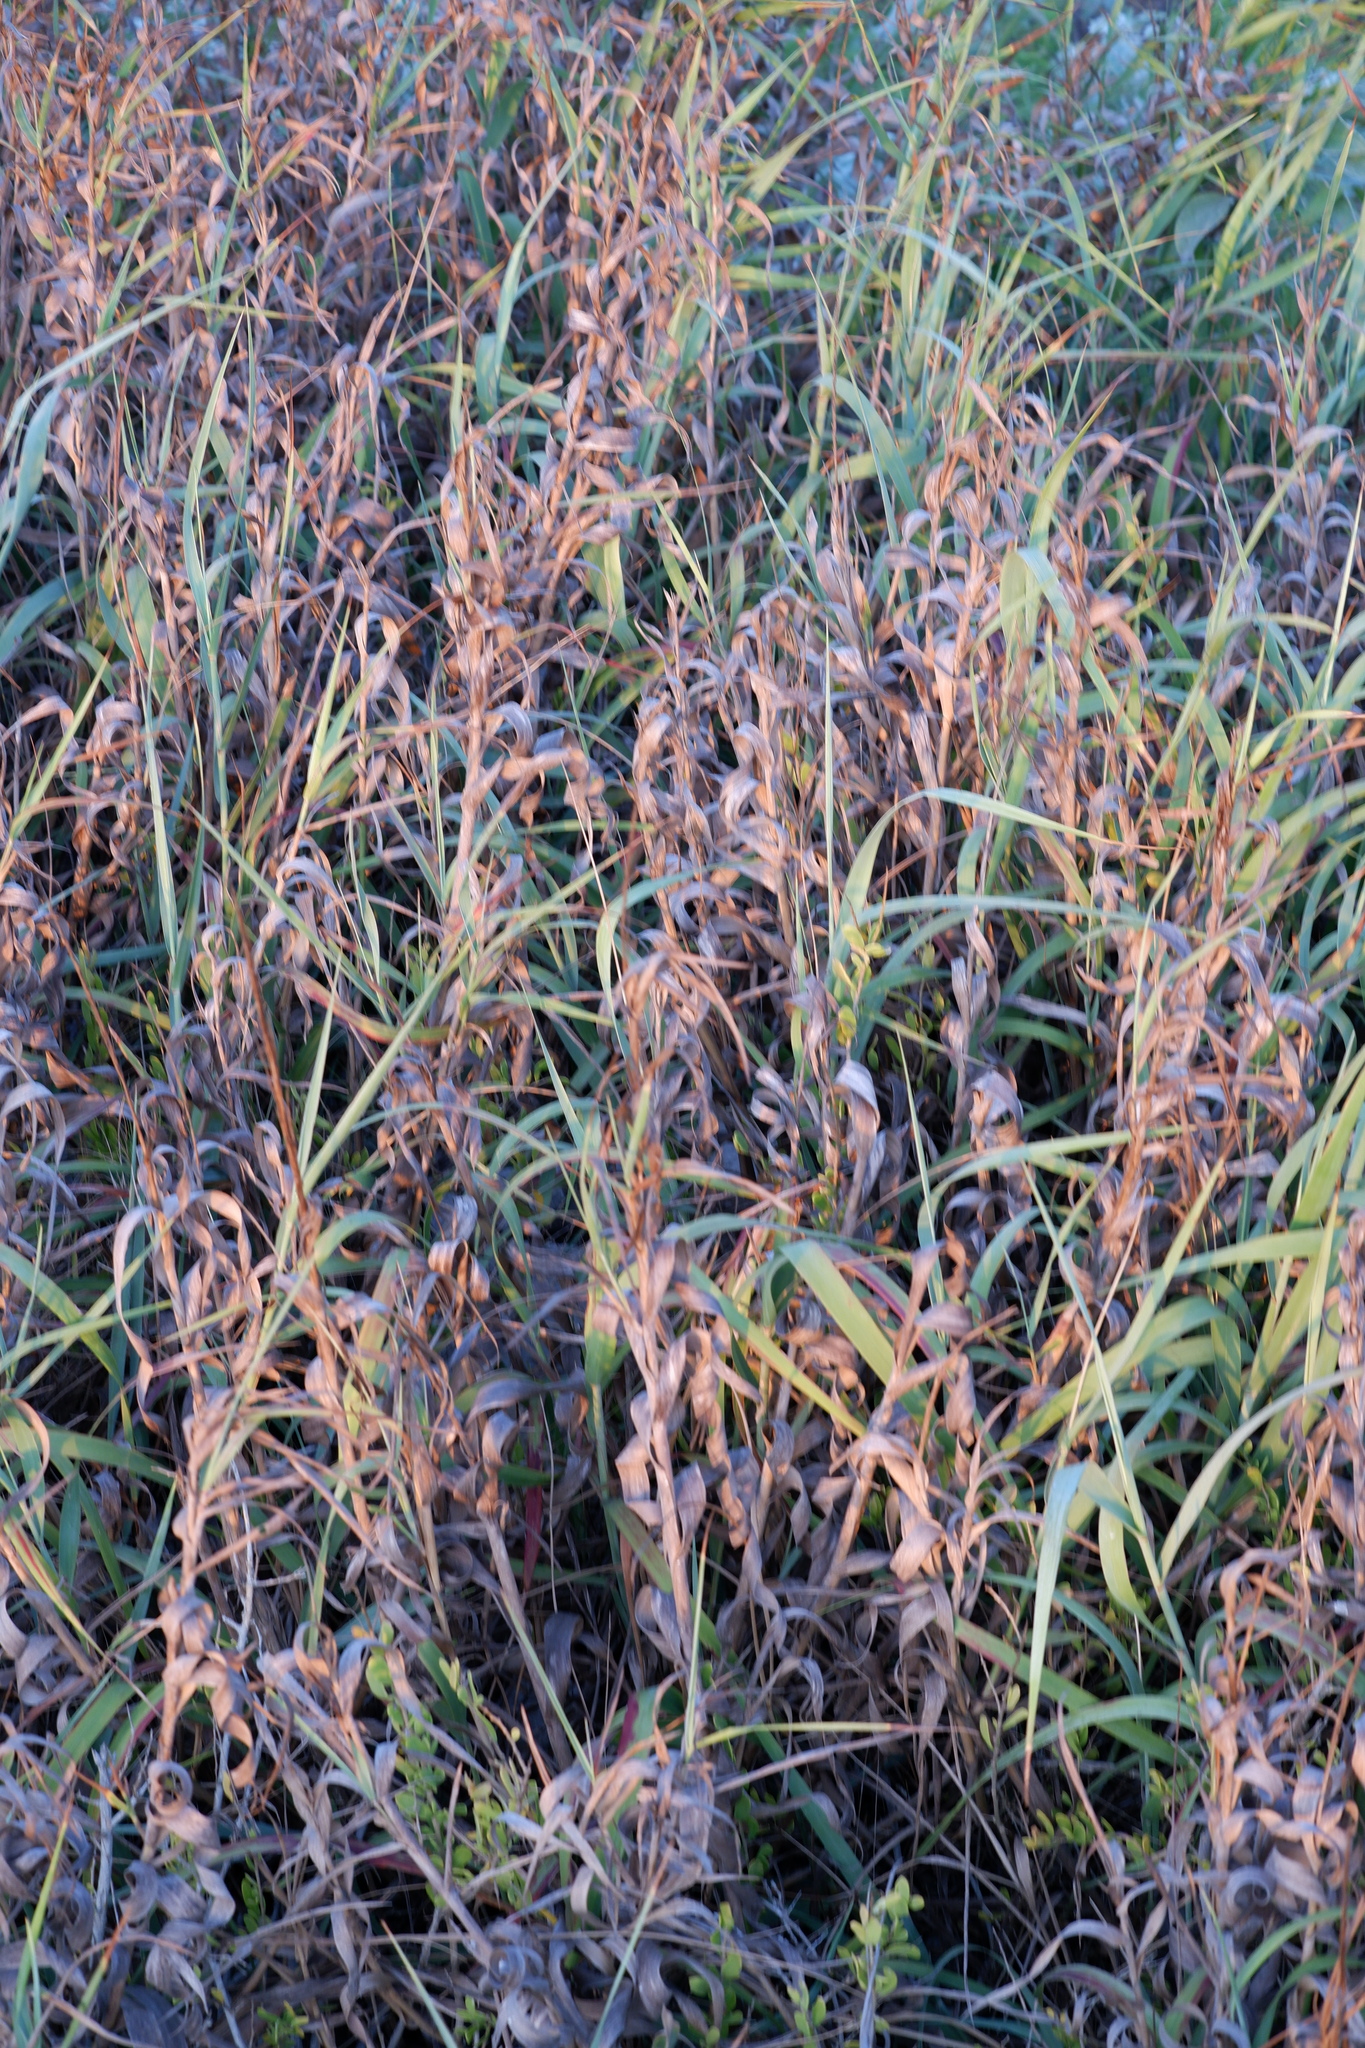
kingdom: Plantae
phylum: Tracheophyta
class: Liliopsida
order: Poales
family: Poaceae
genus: Panicum
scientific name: Panicum amarum
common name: Bitter panicum
